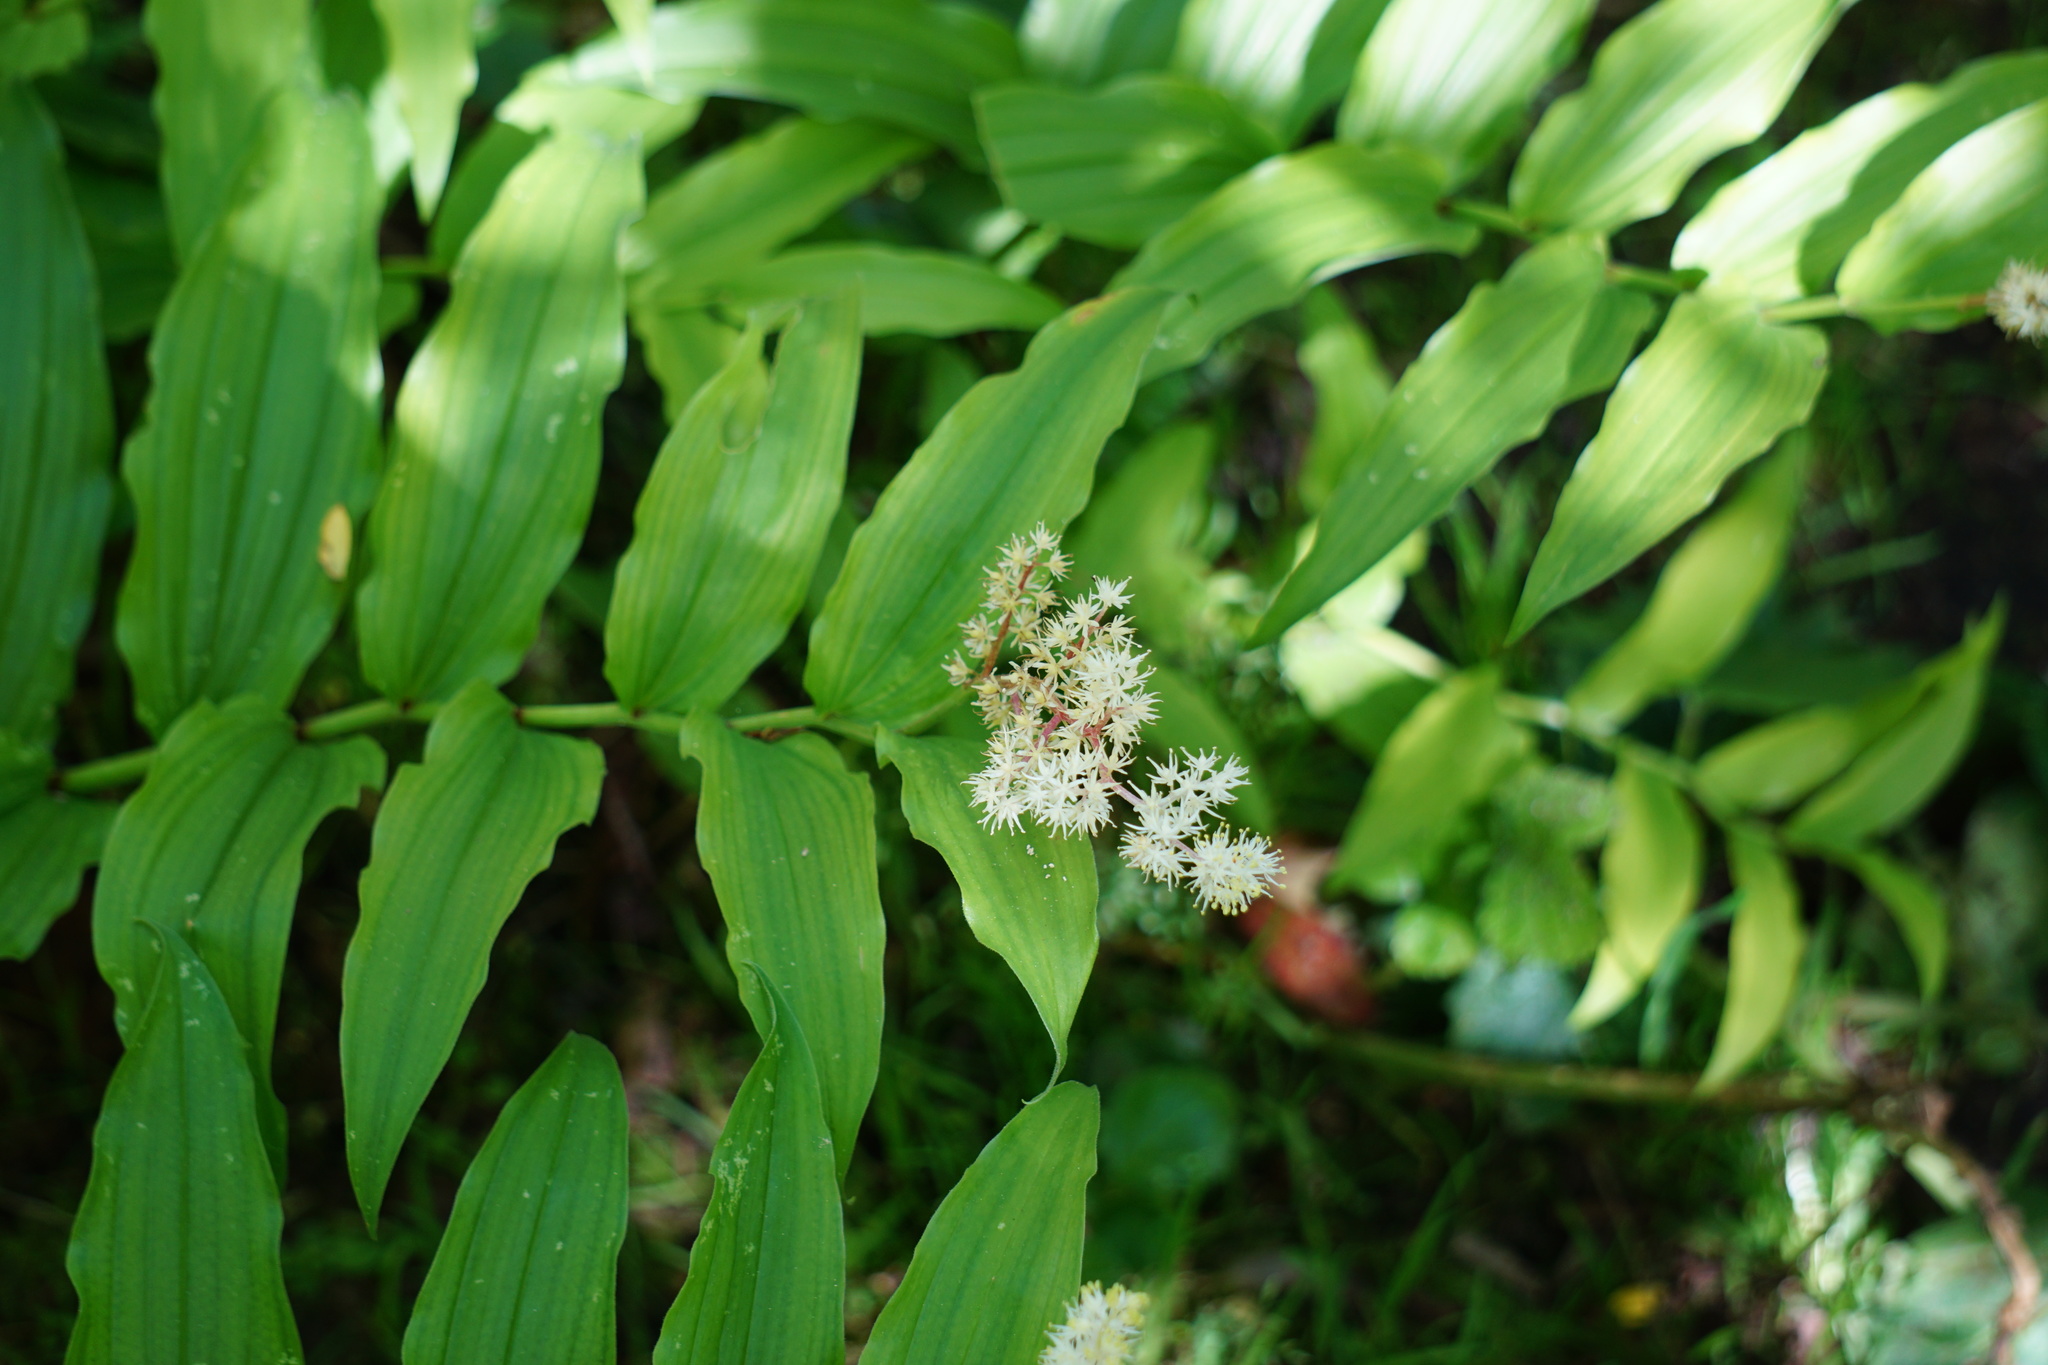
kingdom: Plantae
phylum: Tracheophyta
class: Liliopsida
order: Asparagales
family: Asparagaceae
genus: Maianthemum
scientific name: Maianthemum racemosum
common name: False spikenard
